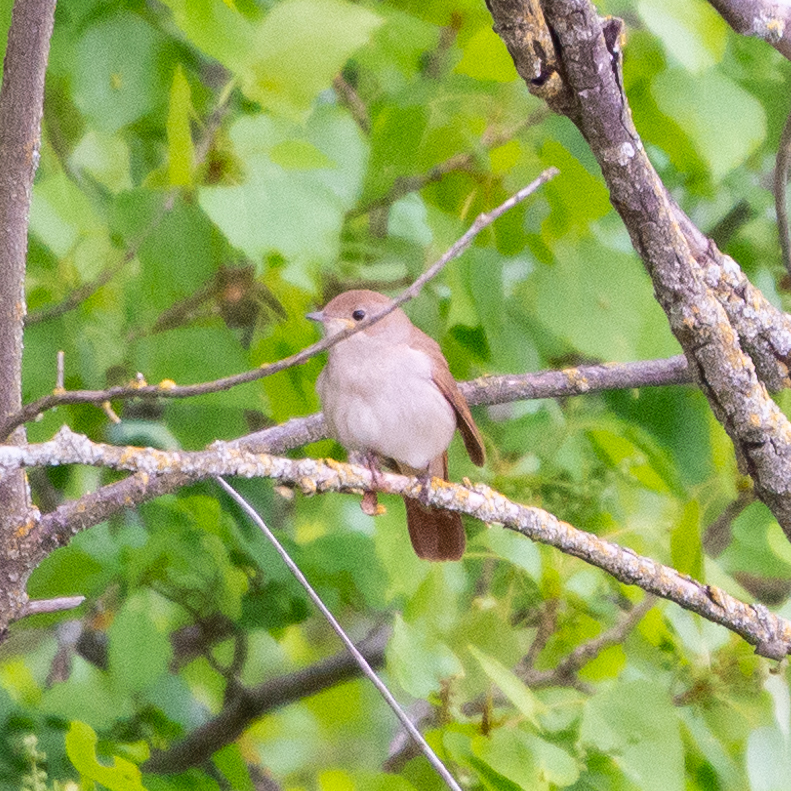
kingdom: Animalia
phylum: Chordata
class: Aves
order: Passeriformes
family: Muscicapidae
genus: Luscinia
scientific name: Luscinia megarhynchos
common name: Common nightingale
